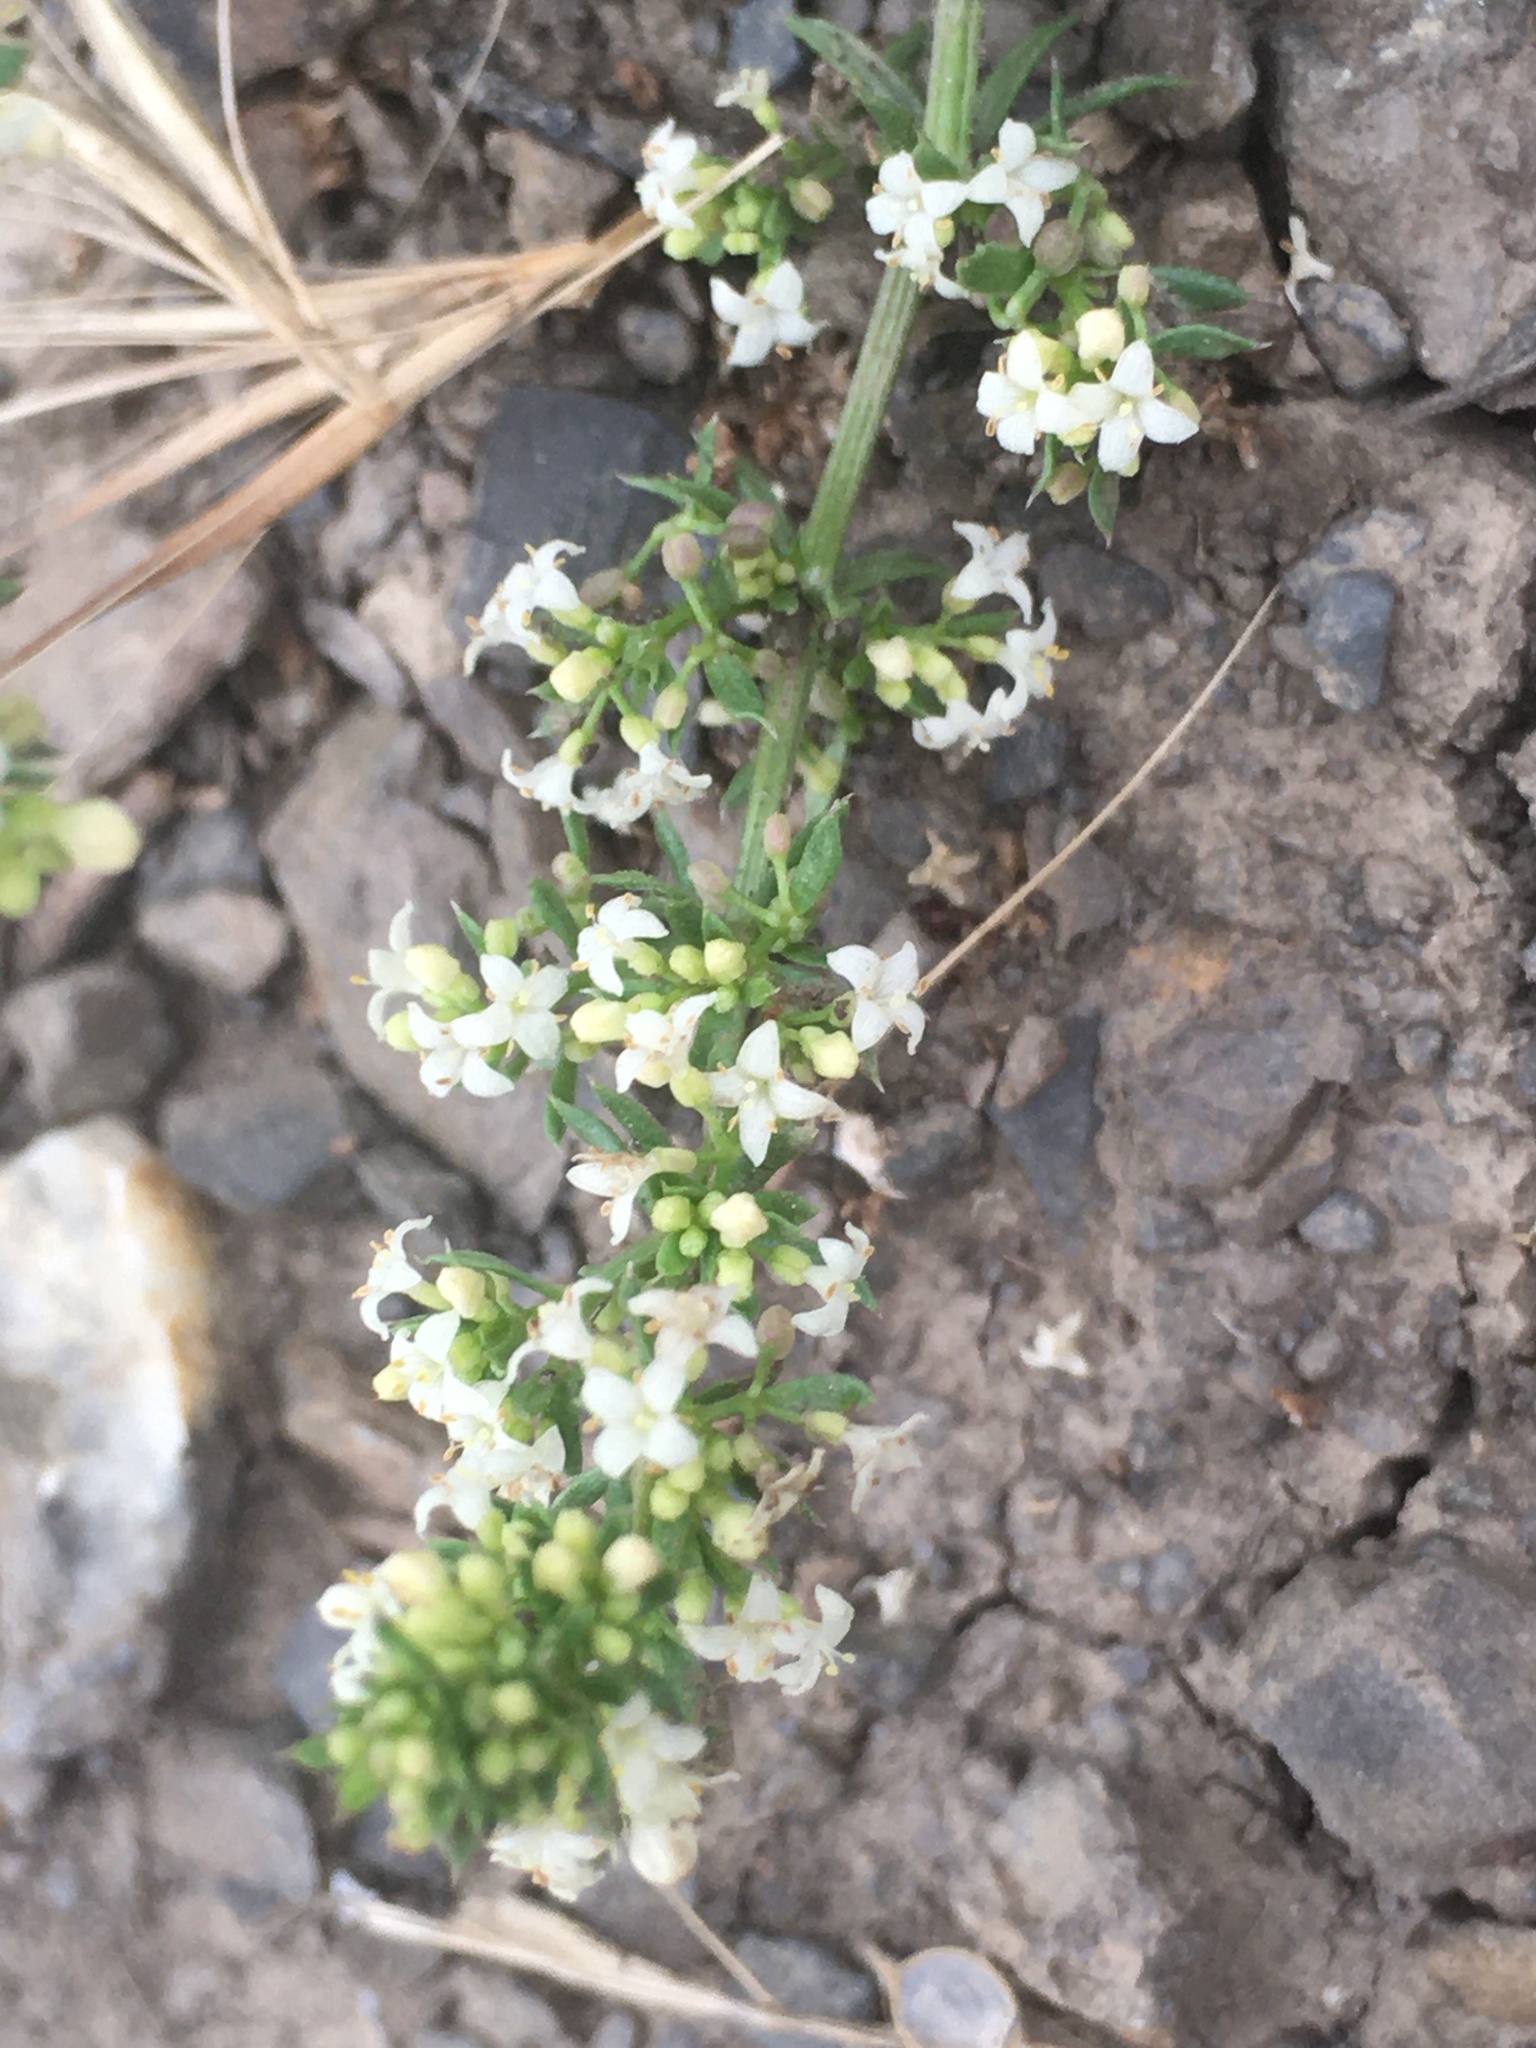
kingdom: Plantae
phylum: Tracheophyta
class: Magnoliopsida
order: Gentianales
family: Rubiaceae
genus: Galium
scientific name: Galium humifusum
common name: Spreading bedstraw
